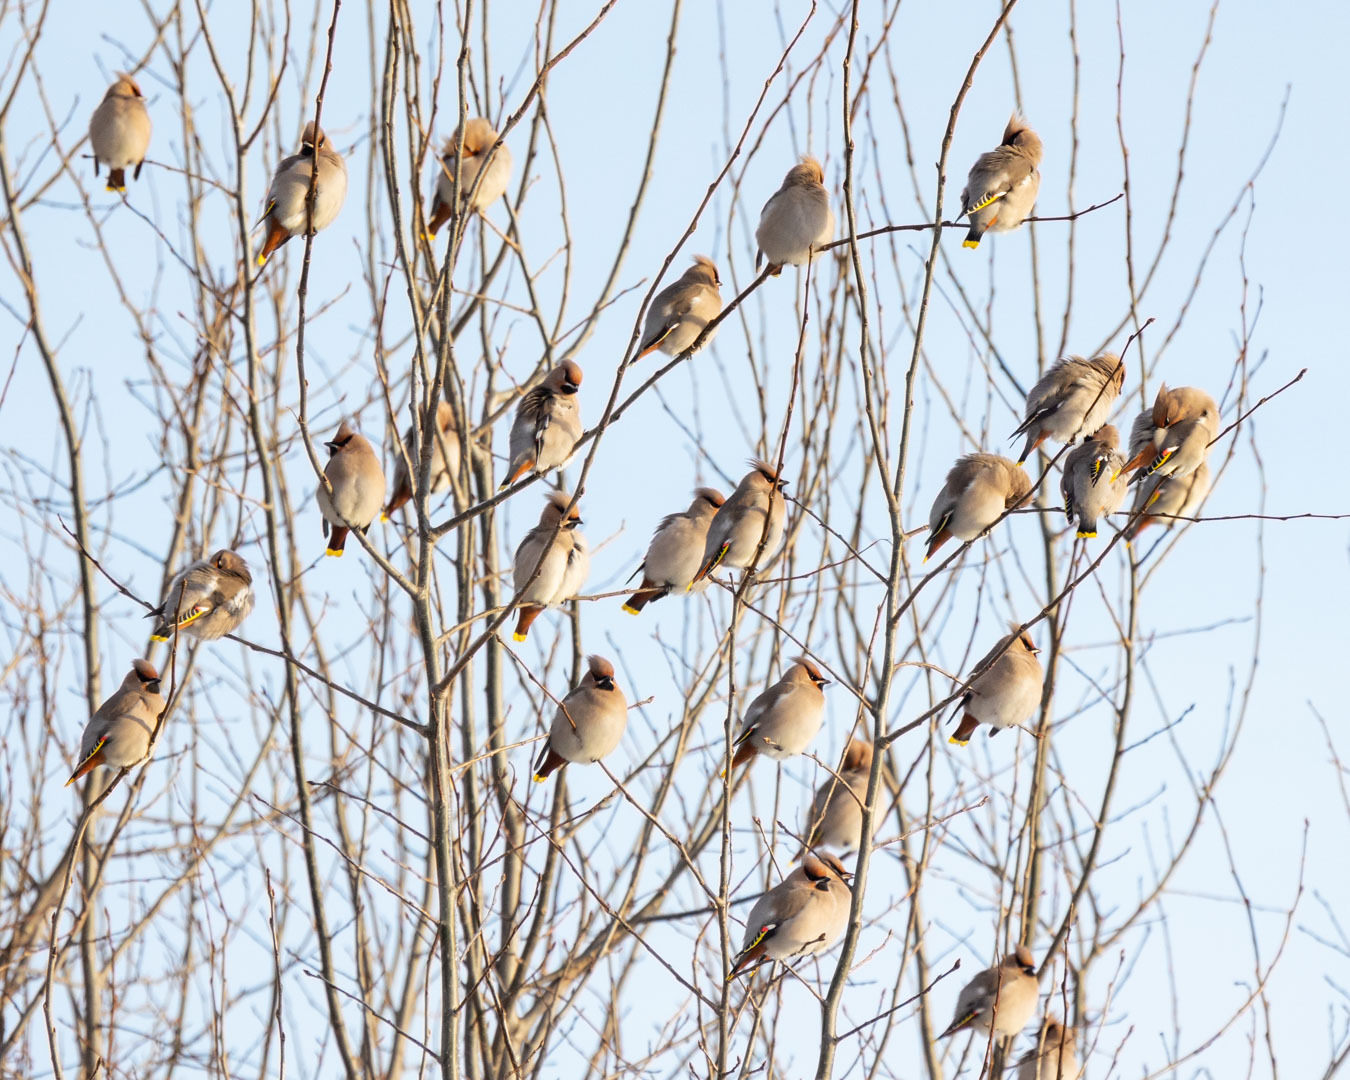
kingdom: Animalia
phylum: Chordata
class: Aves
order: Passeriformes
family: Bombycillidae
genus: Bombycilla
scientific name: Bombycilla garrulus
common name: Bohemian waxwing
